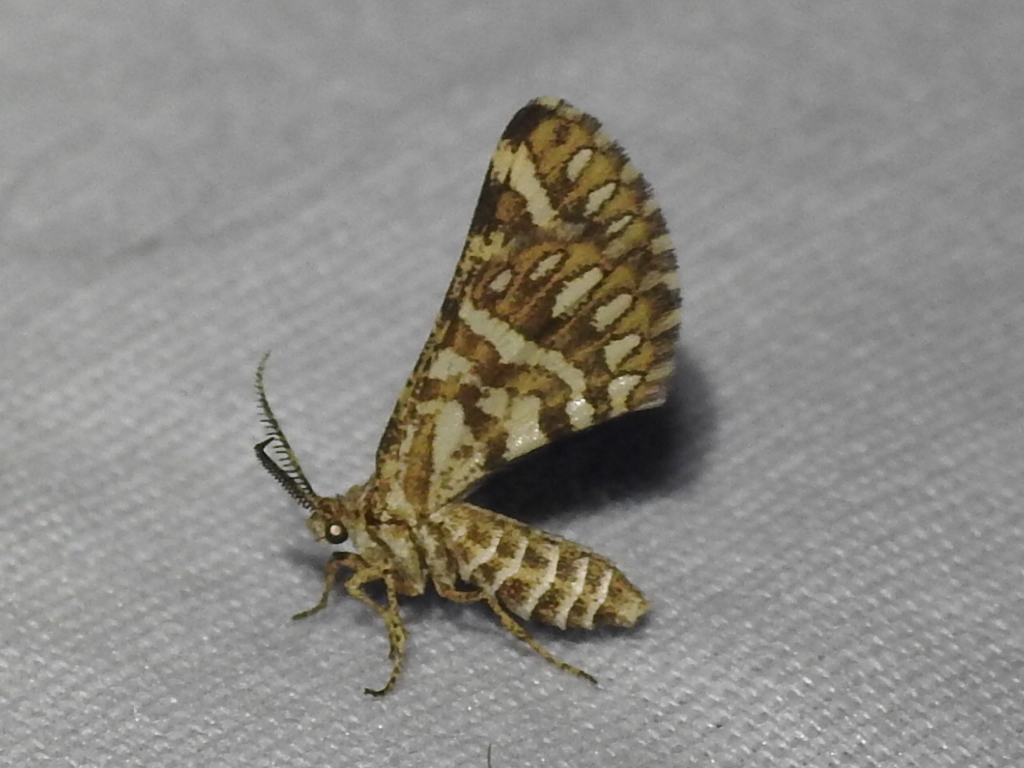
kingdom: Animalia
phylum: Arthropoda
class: Insecta
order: Lepidoptera
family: Geometridae
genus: Narraga
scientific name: Narraga fimetaria
